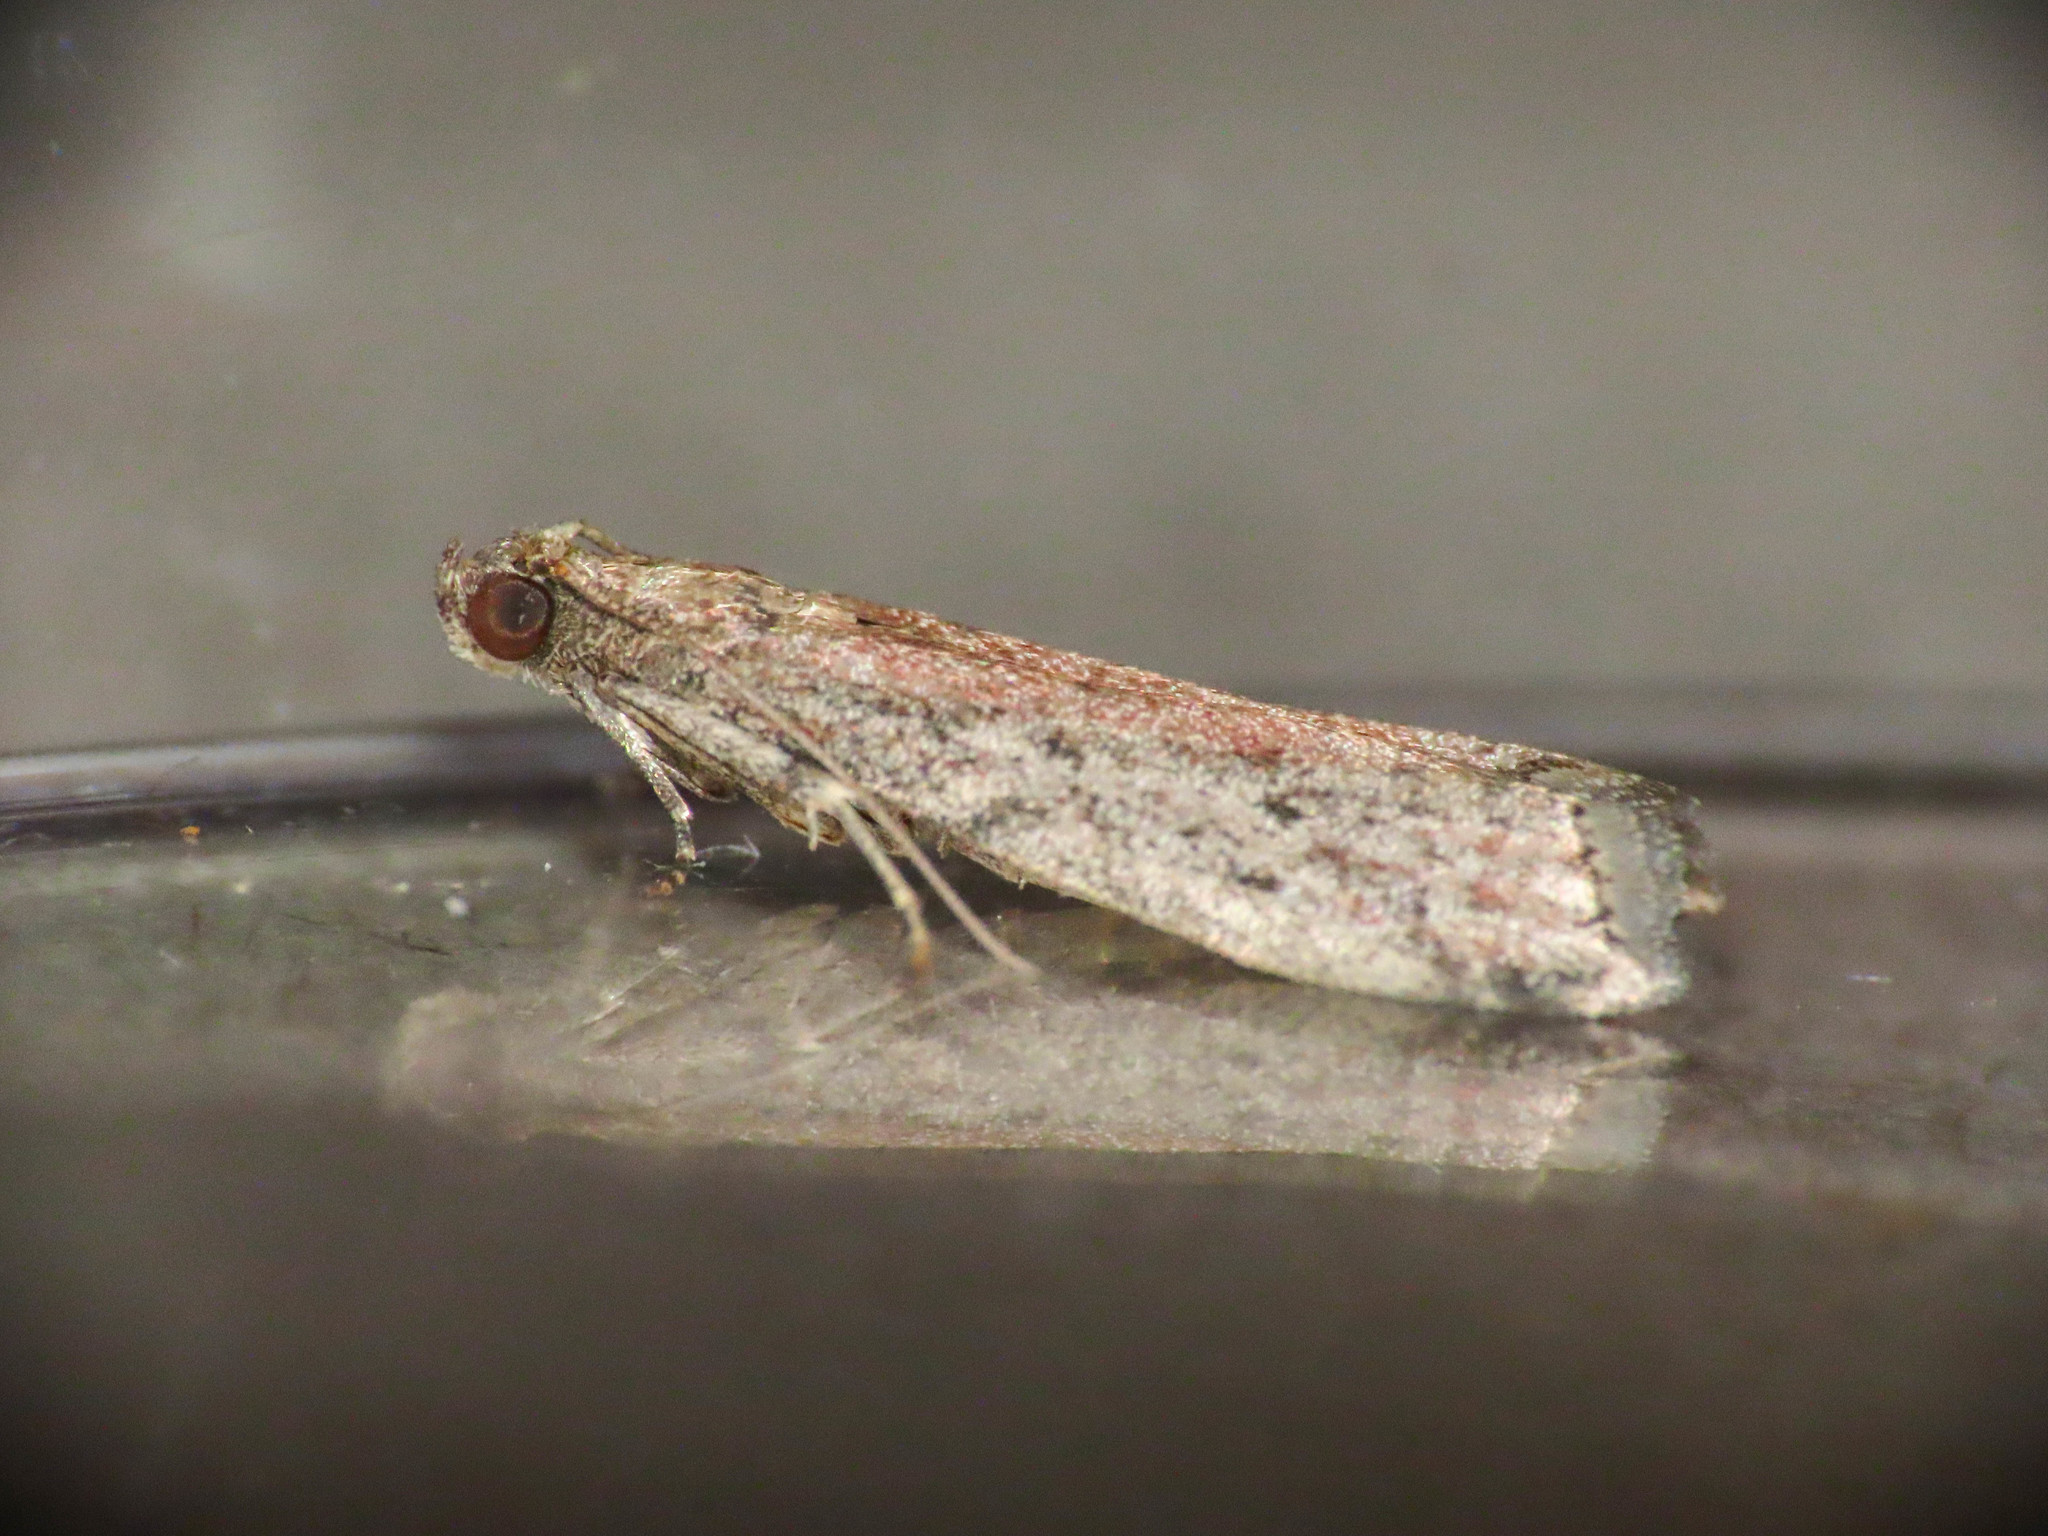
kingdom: Animalia
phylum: Arthropoda
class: Insecta
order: Lepidoptera
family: Pyralidae
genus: Ephestia
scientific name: Ephestia woodiella
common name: False cacao moth
